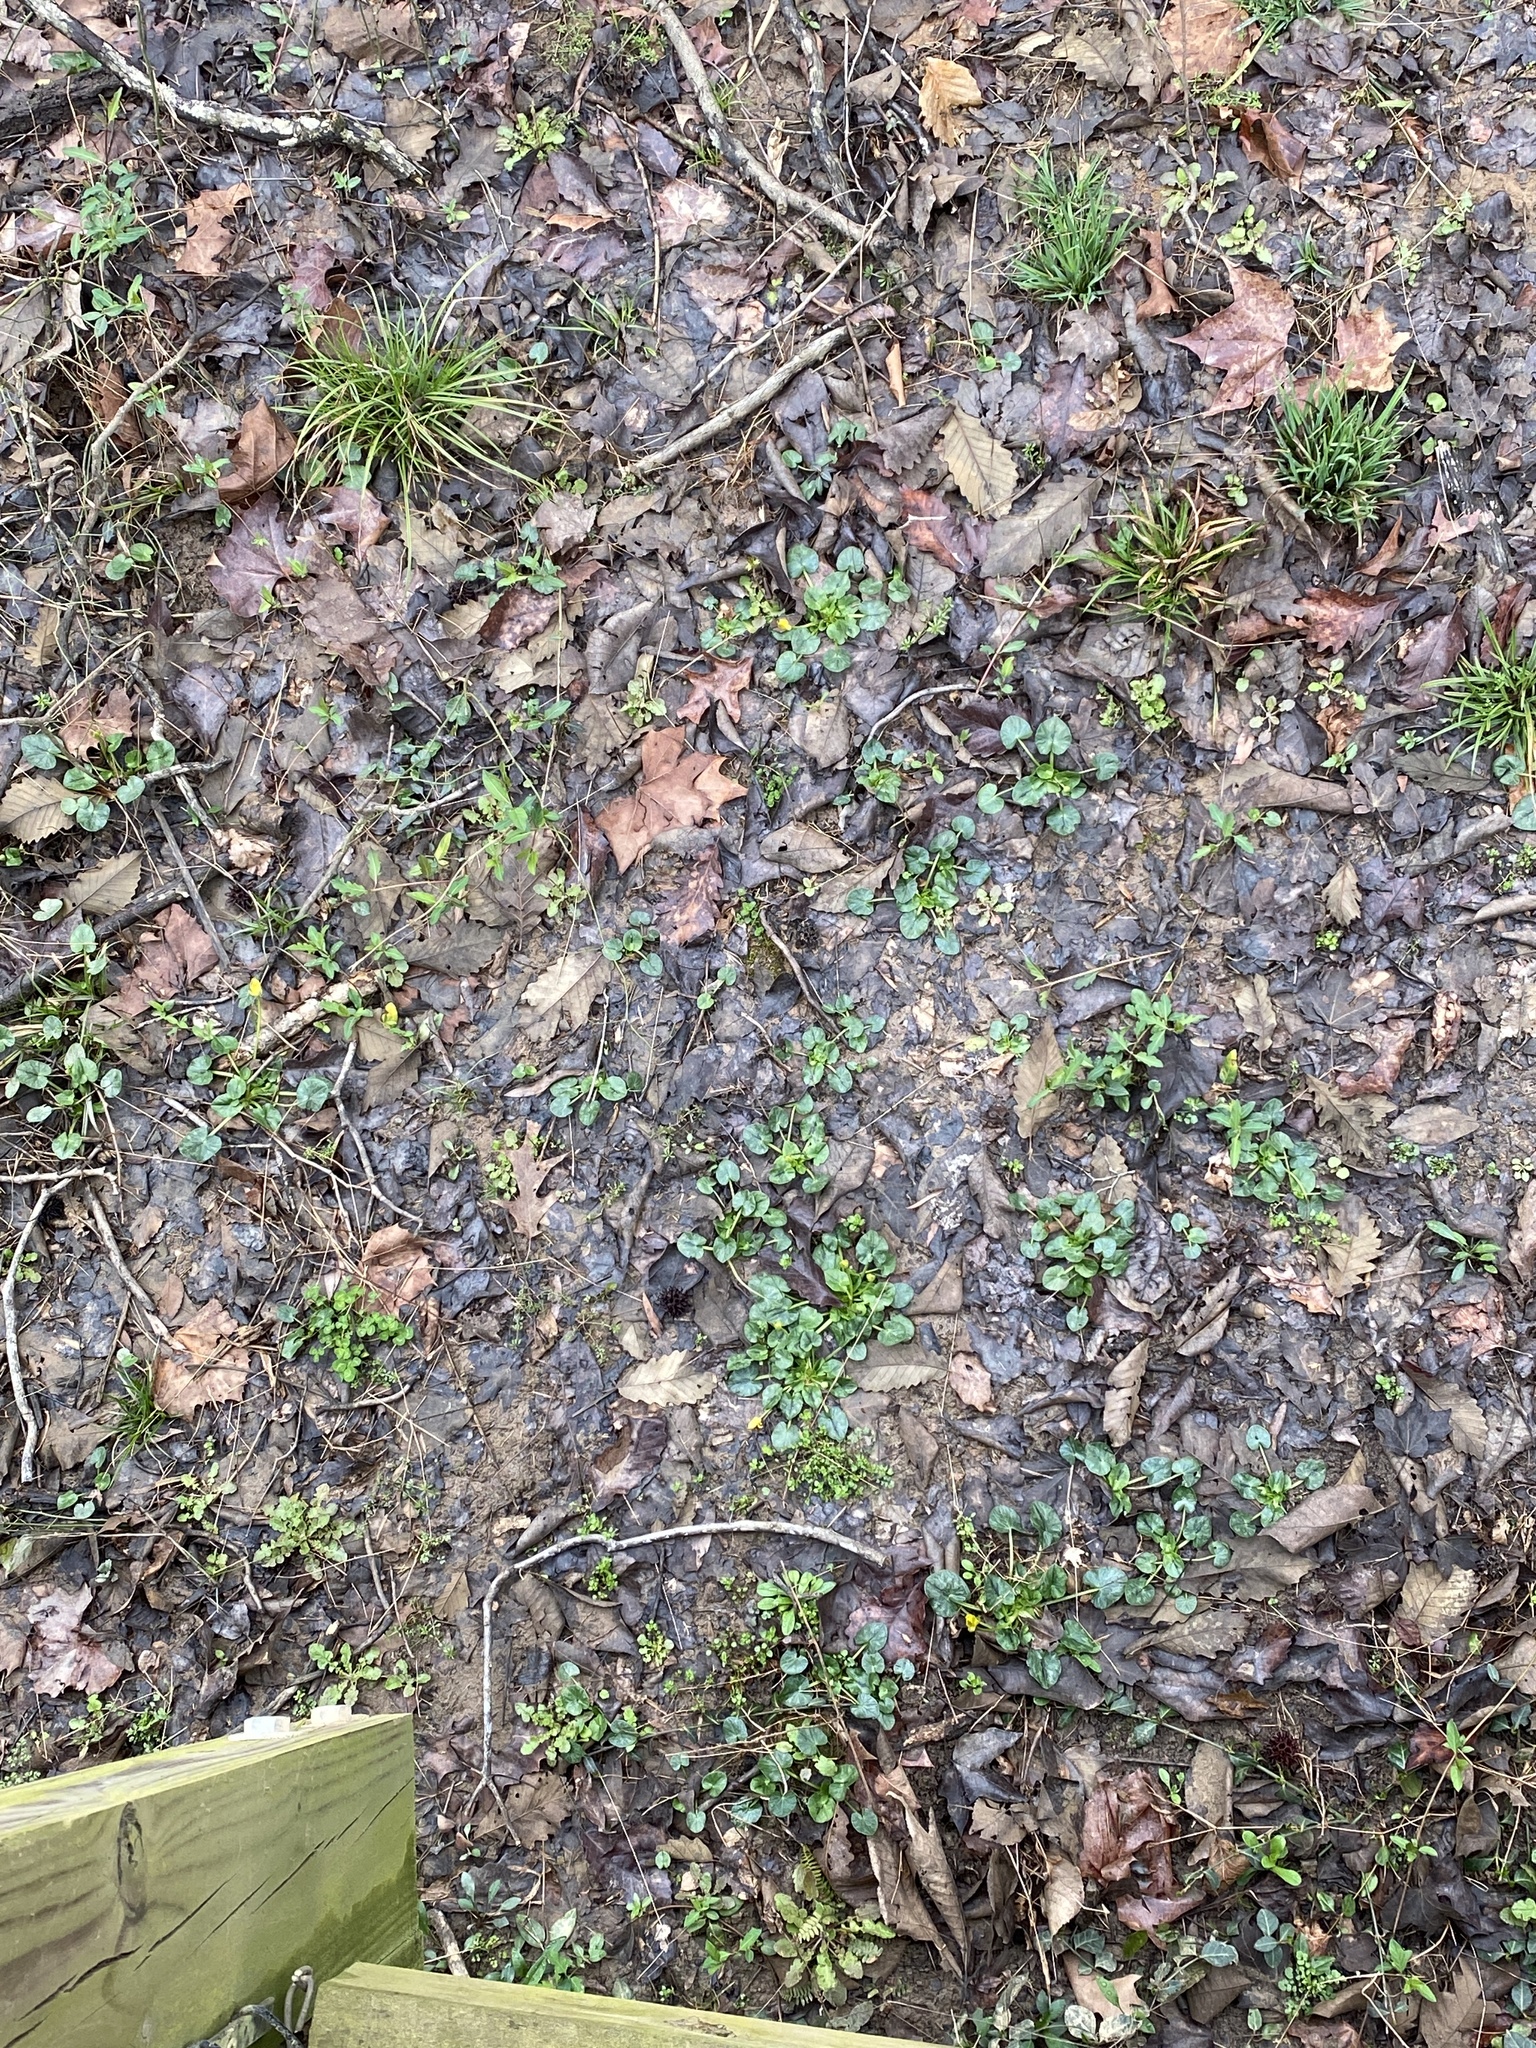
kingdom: Plantae
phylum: Tracheophyta
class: Magnoliopsida
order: Ranunculales
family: Ranunculaceae
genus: Ficaria
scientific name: Ficaria verna
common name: Lesser celandine
